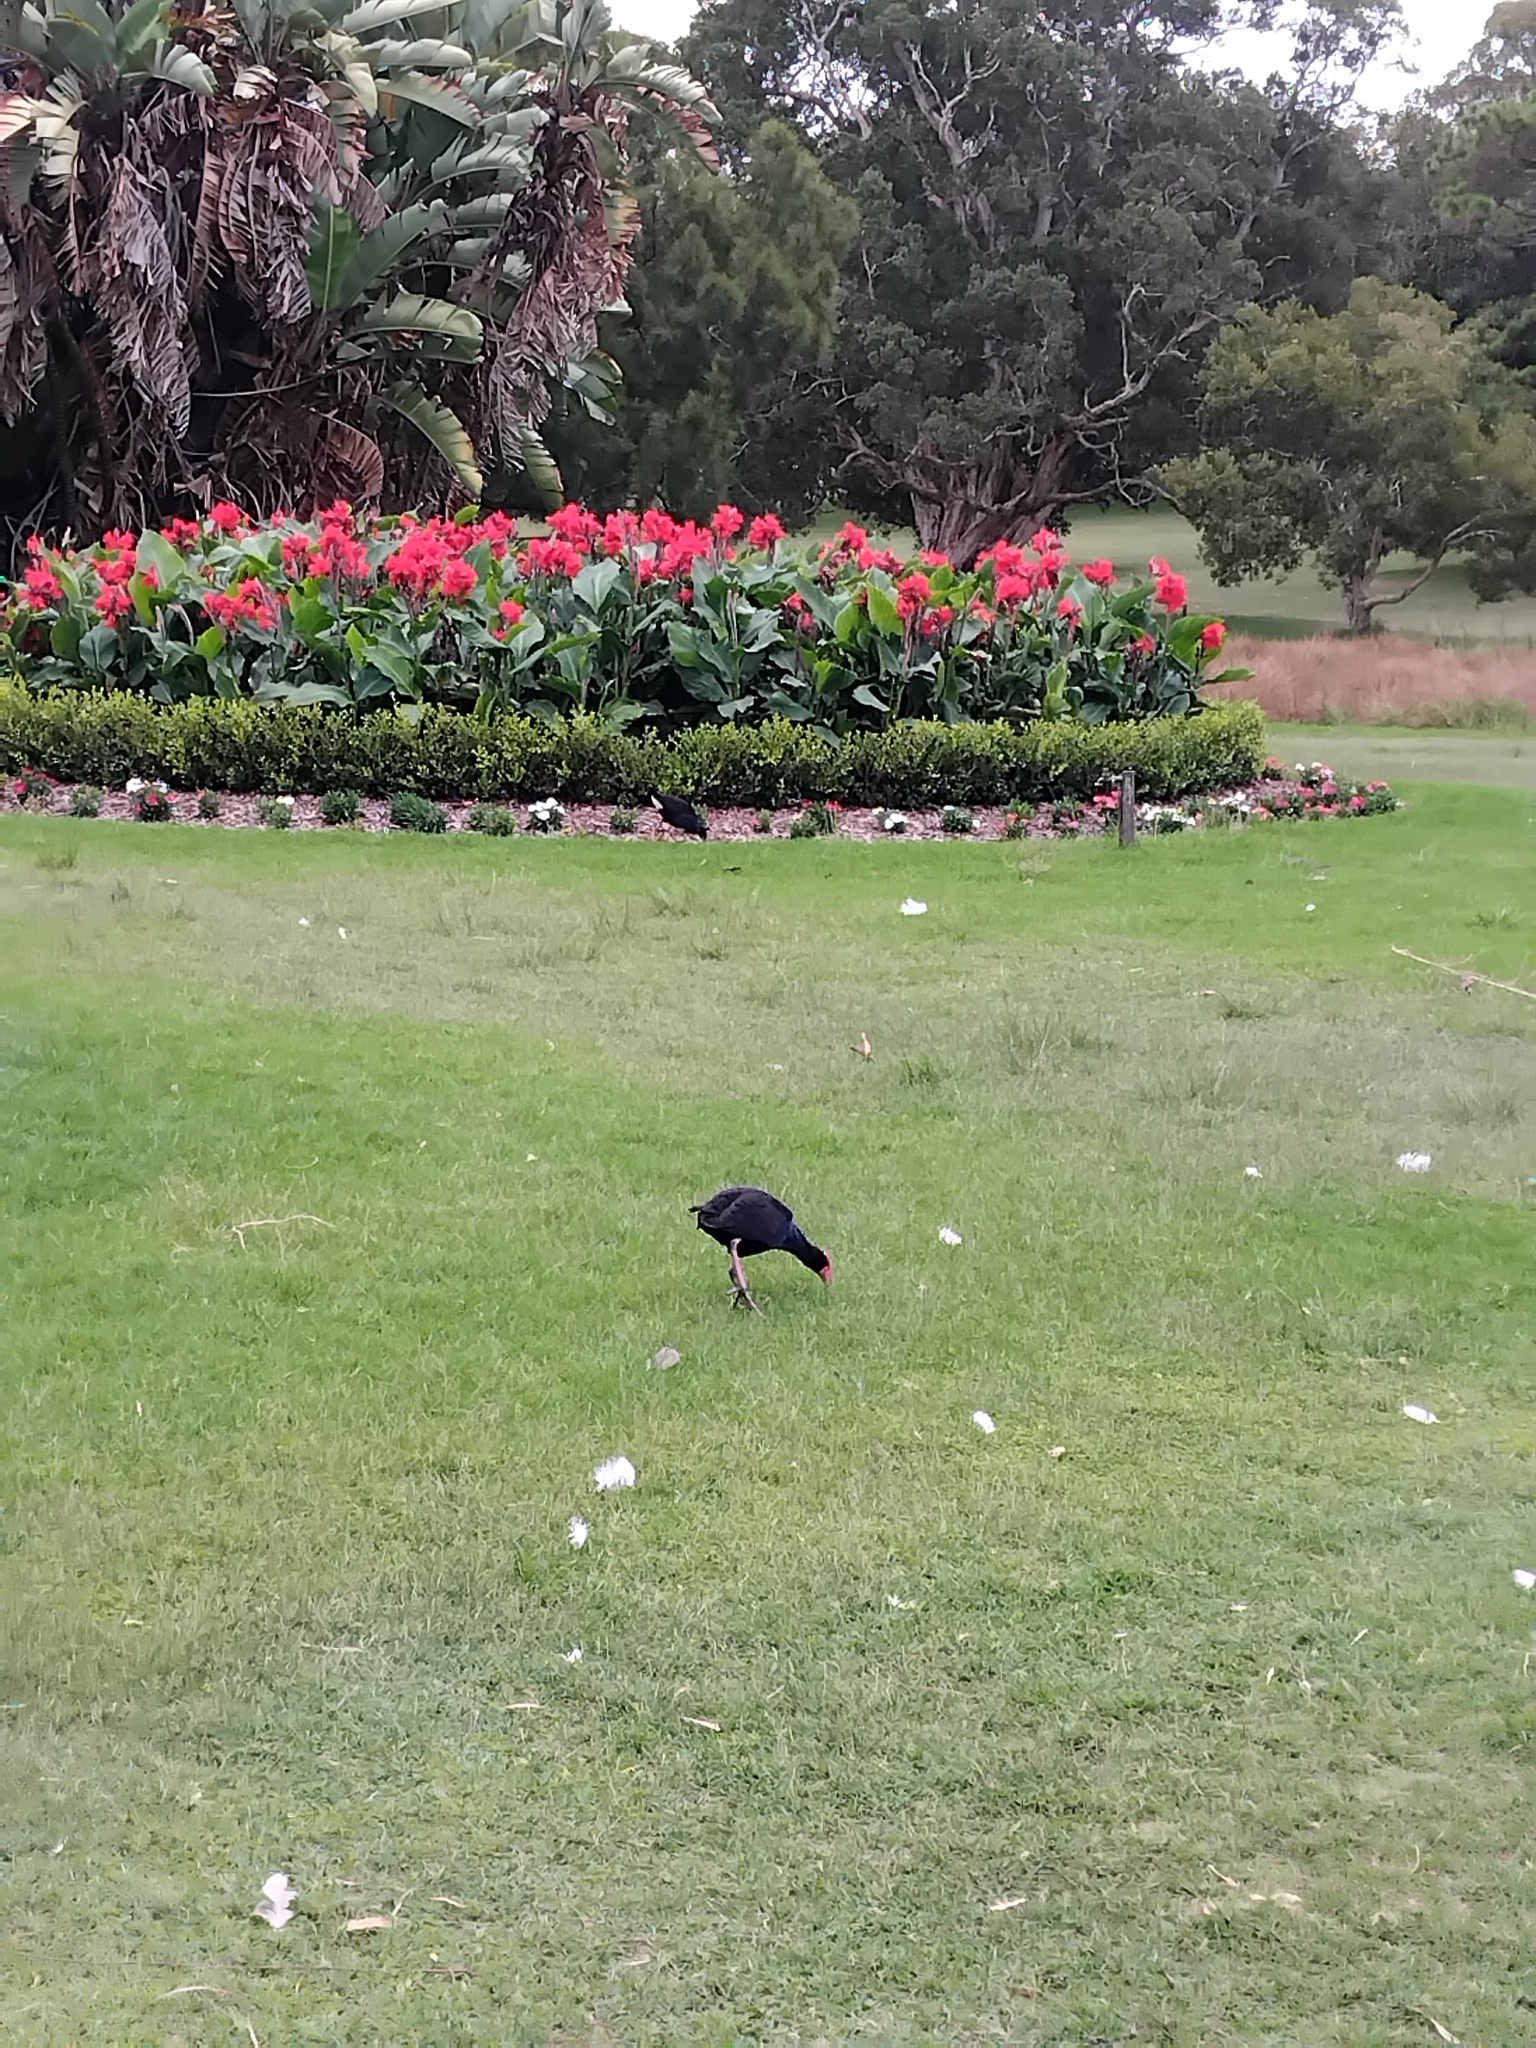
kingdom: Animalia
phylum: Chordata
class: Aves
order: Gruiformes
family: Rallidae
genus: Porphyrio
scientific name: Porphyrio melanotus
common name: Australasian swamphen
